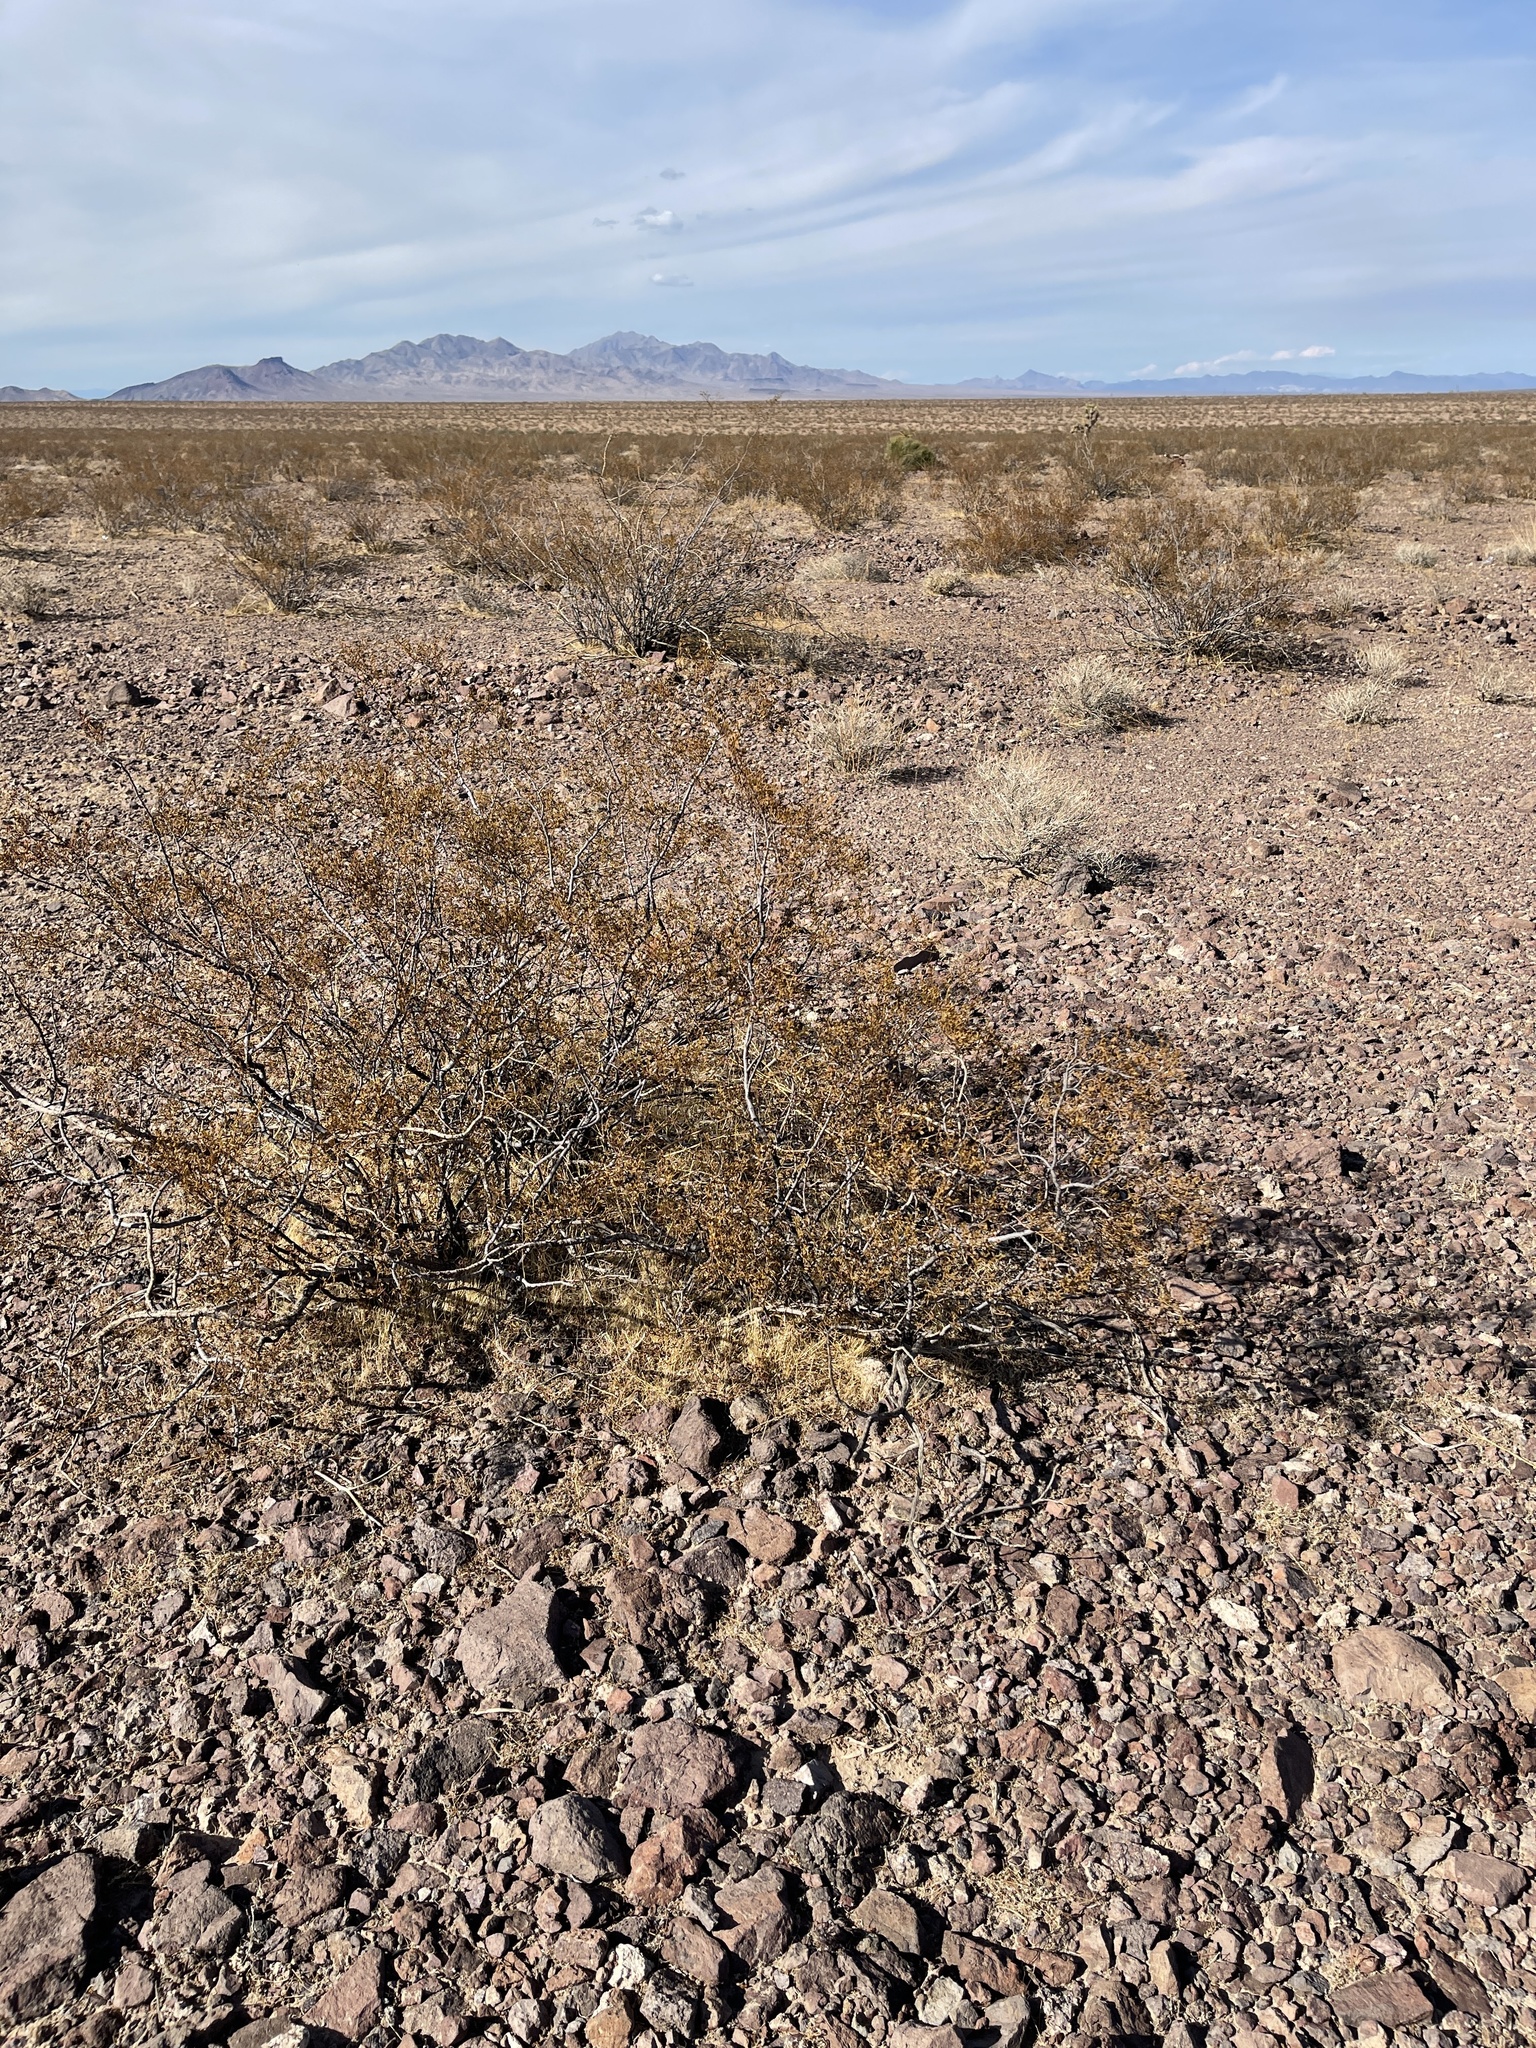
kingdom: Plantae
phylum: Tracheophyta
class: Magnoliopsida
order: Zygophyllales
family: Zygophyllaceae
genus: Larrea
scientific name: Larrea tridentata
